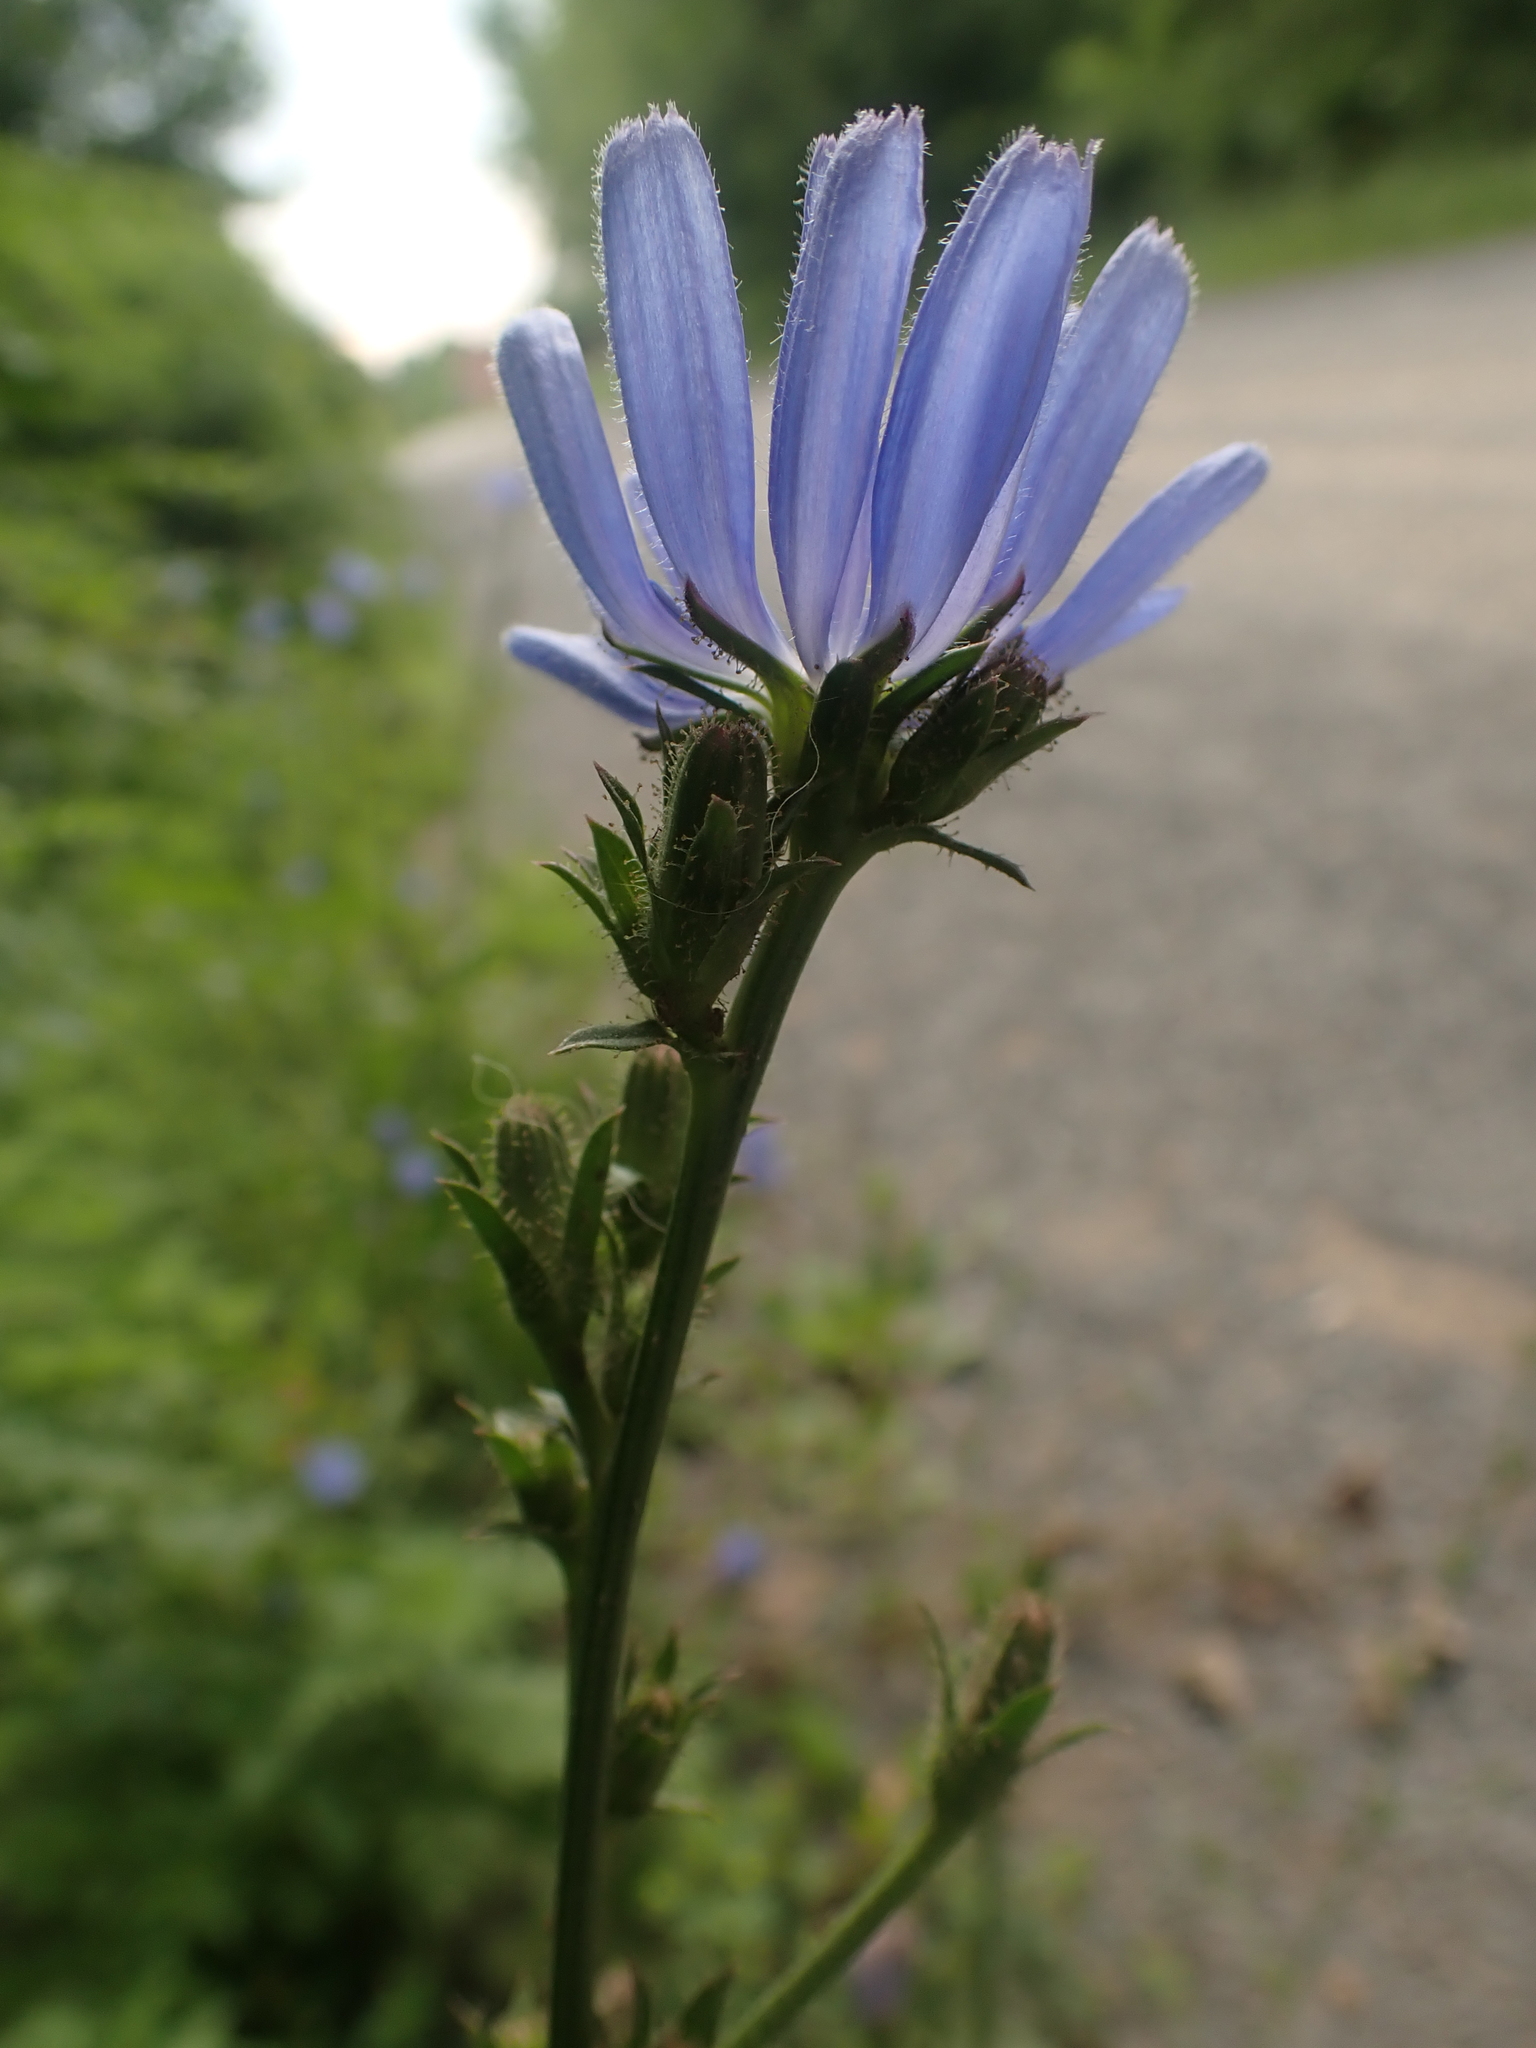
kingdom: Plantae
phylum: Tracheophyta
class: Magnoliopsida
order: Asterales
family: Asteraceae
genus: Cichorium
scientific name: Cichorium intybus
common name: Chicory
